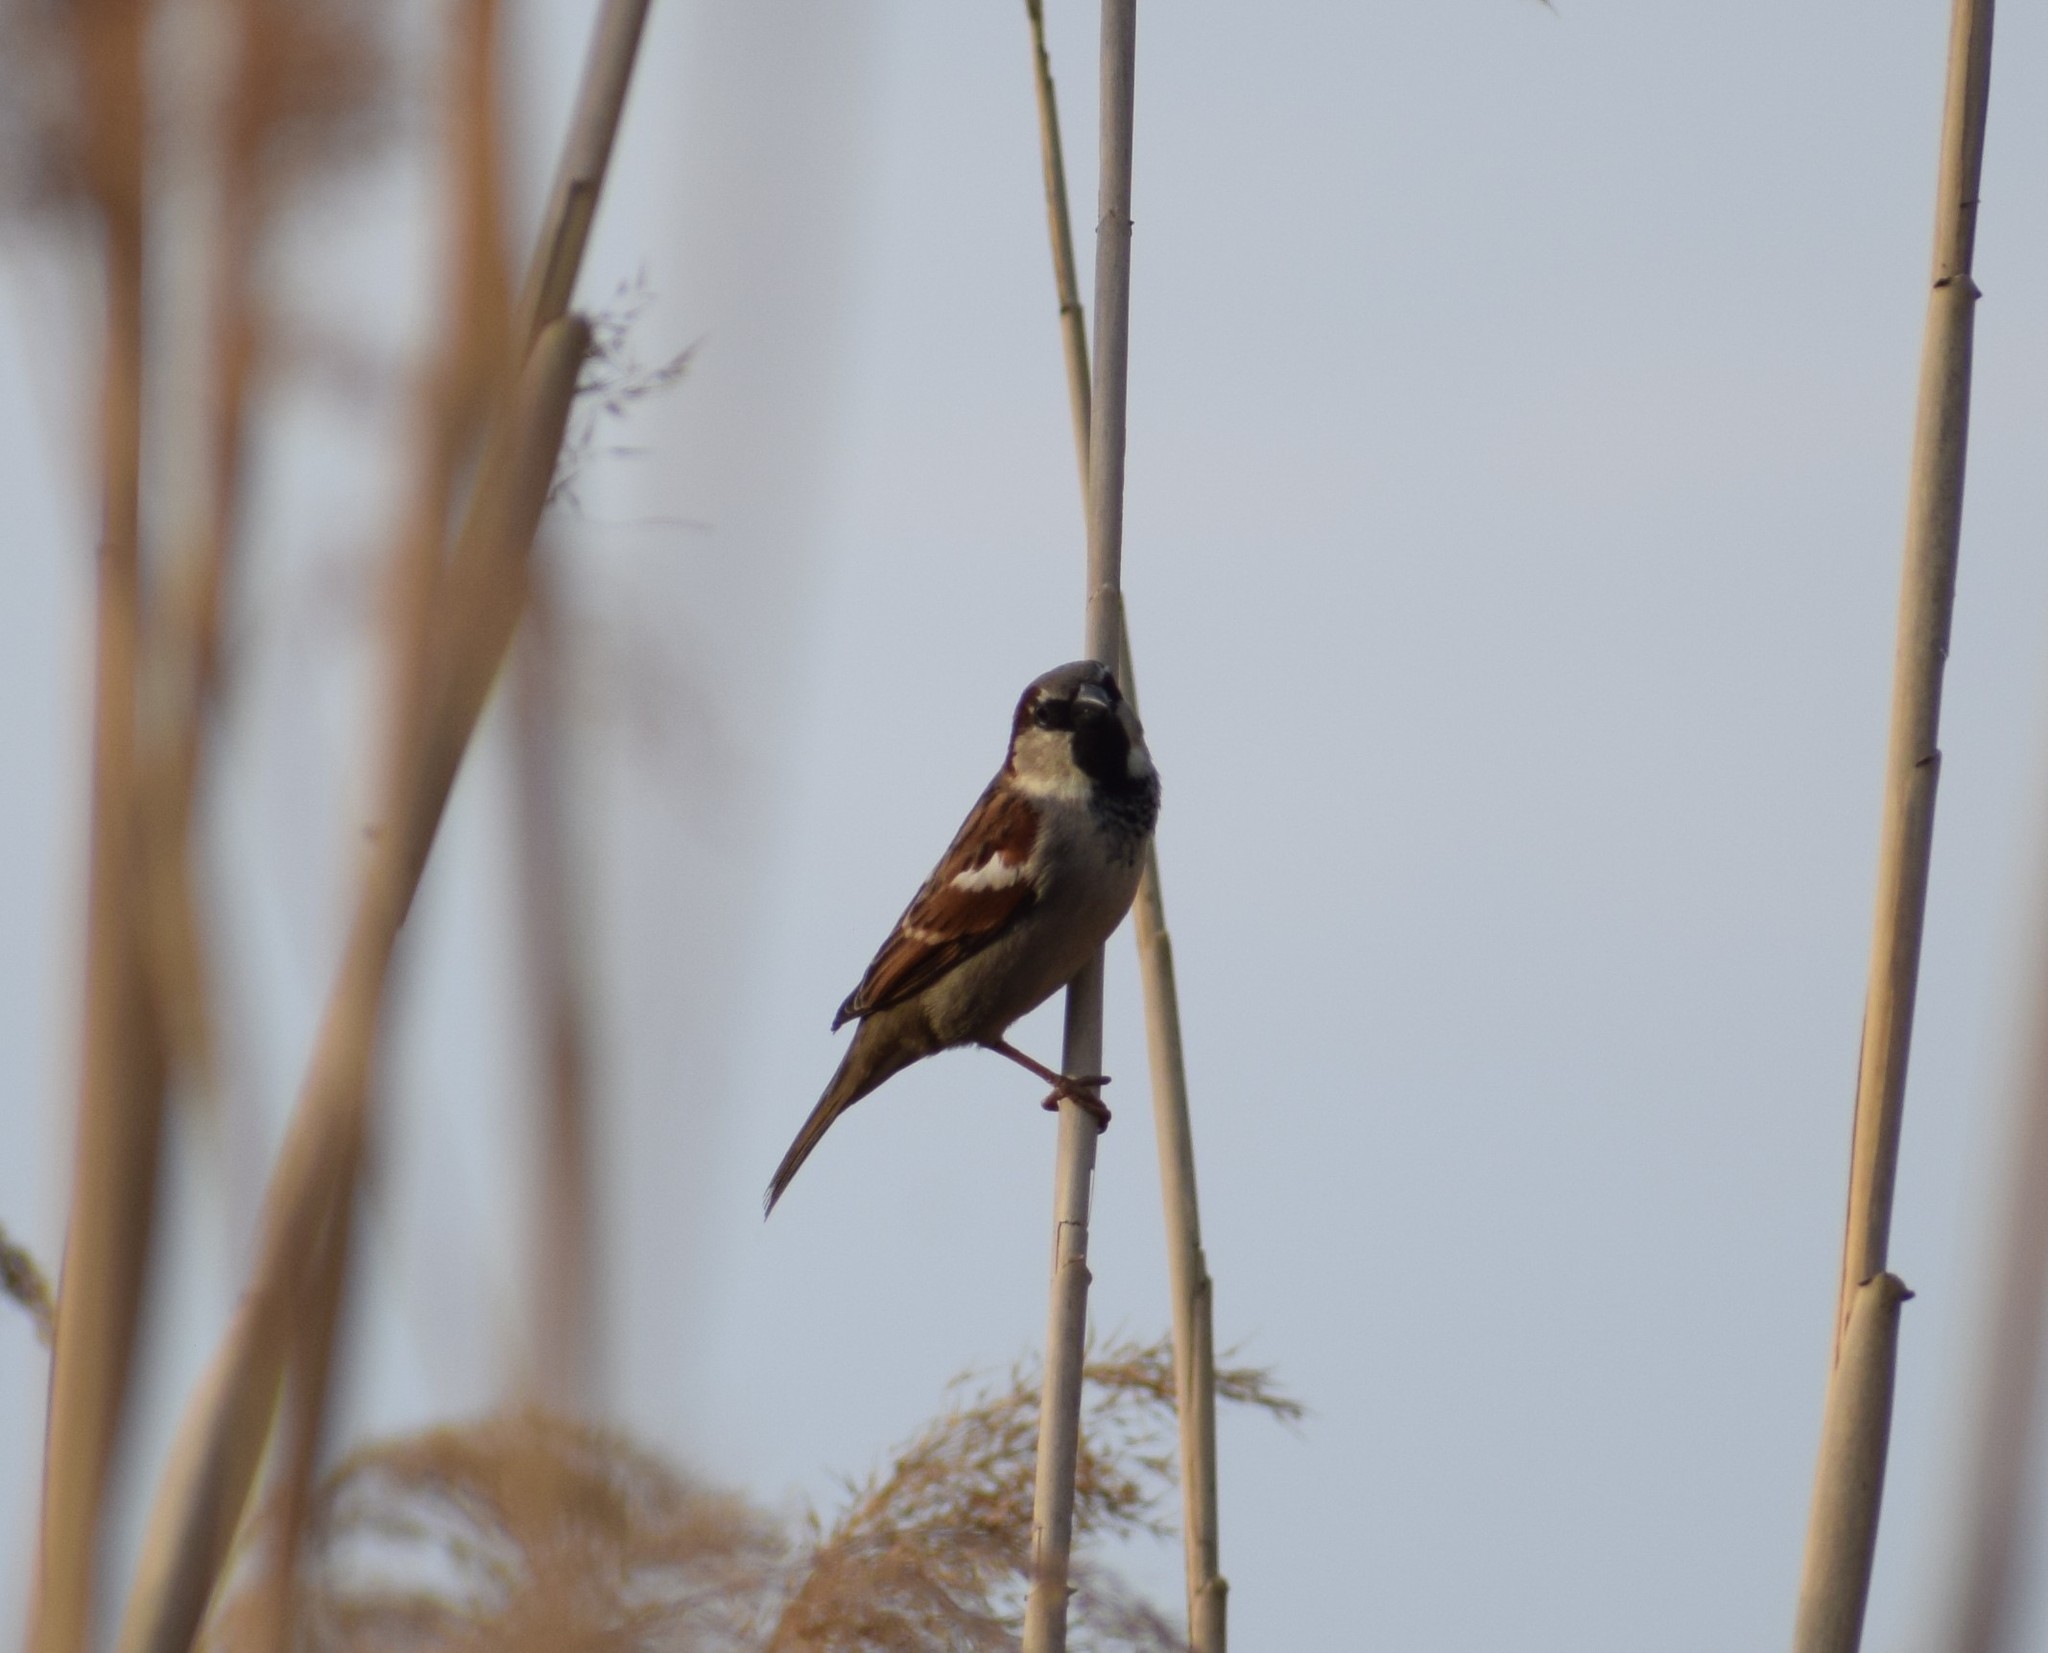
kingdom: Animalia
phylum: Chordata
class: Aves
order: Passeriformes
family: Passeridae
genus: Passer
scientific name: Passer domesticus
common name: House sparrow
